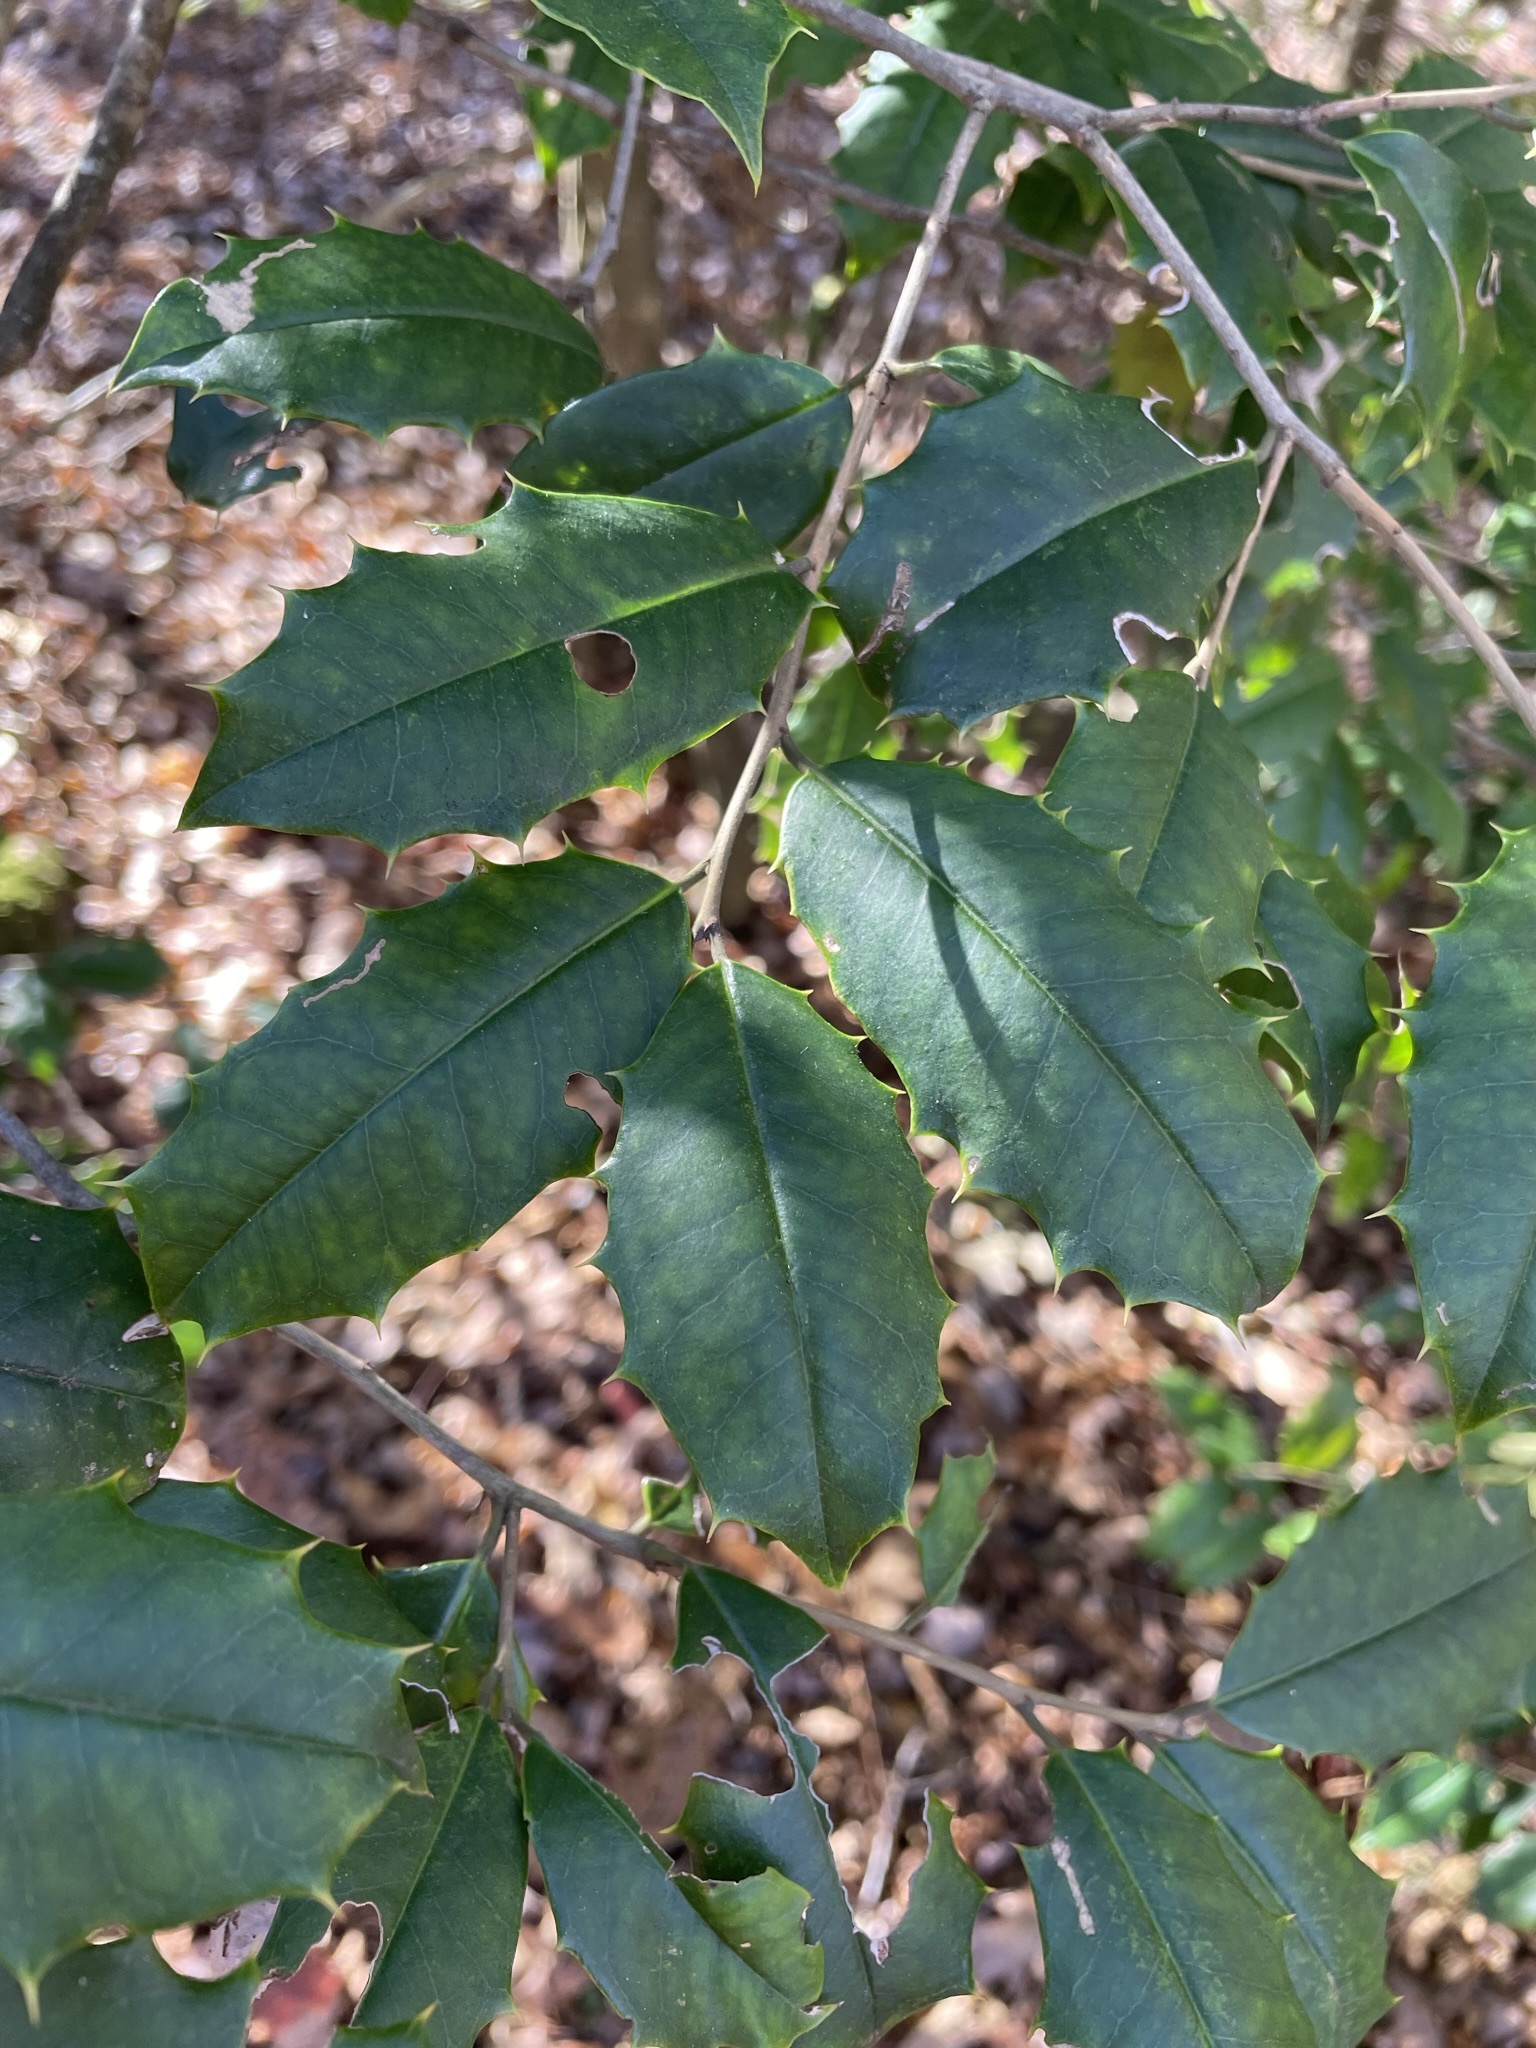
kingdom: Plantae
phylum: Tracheophyta
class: Magnoliopsida
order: Aquifoliales
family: Aquifoliaceae
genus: Ilex
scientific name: Ilex opaca
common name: American holly
